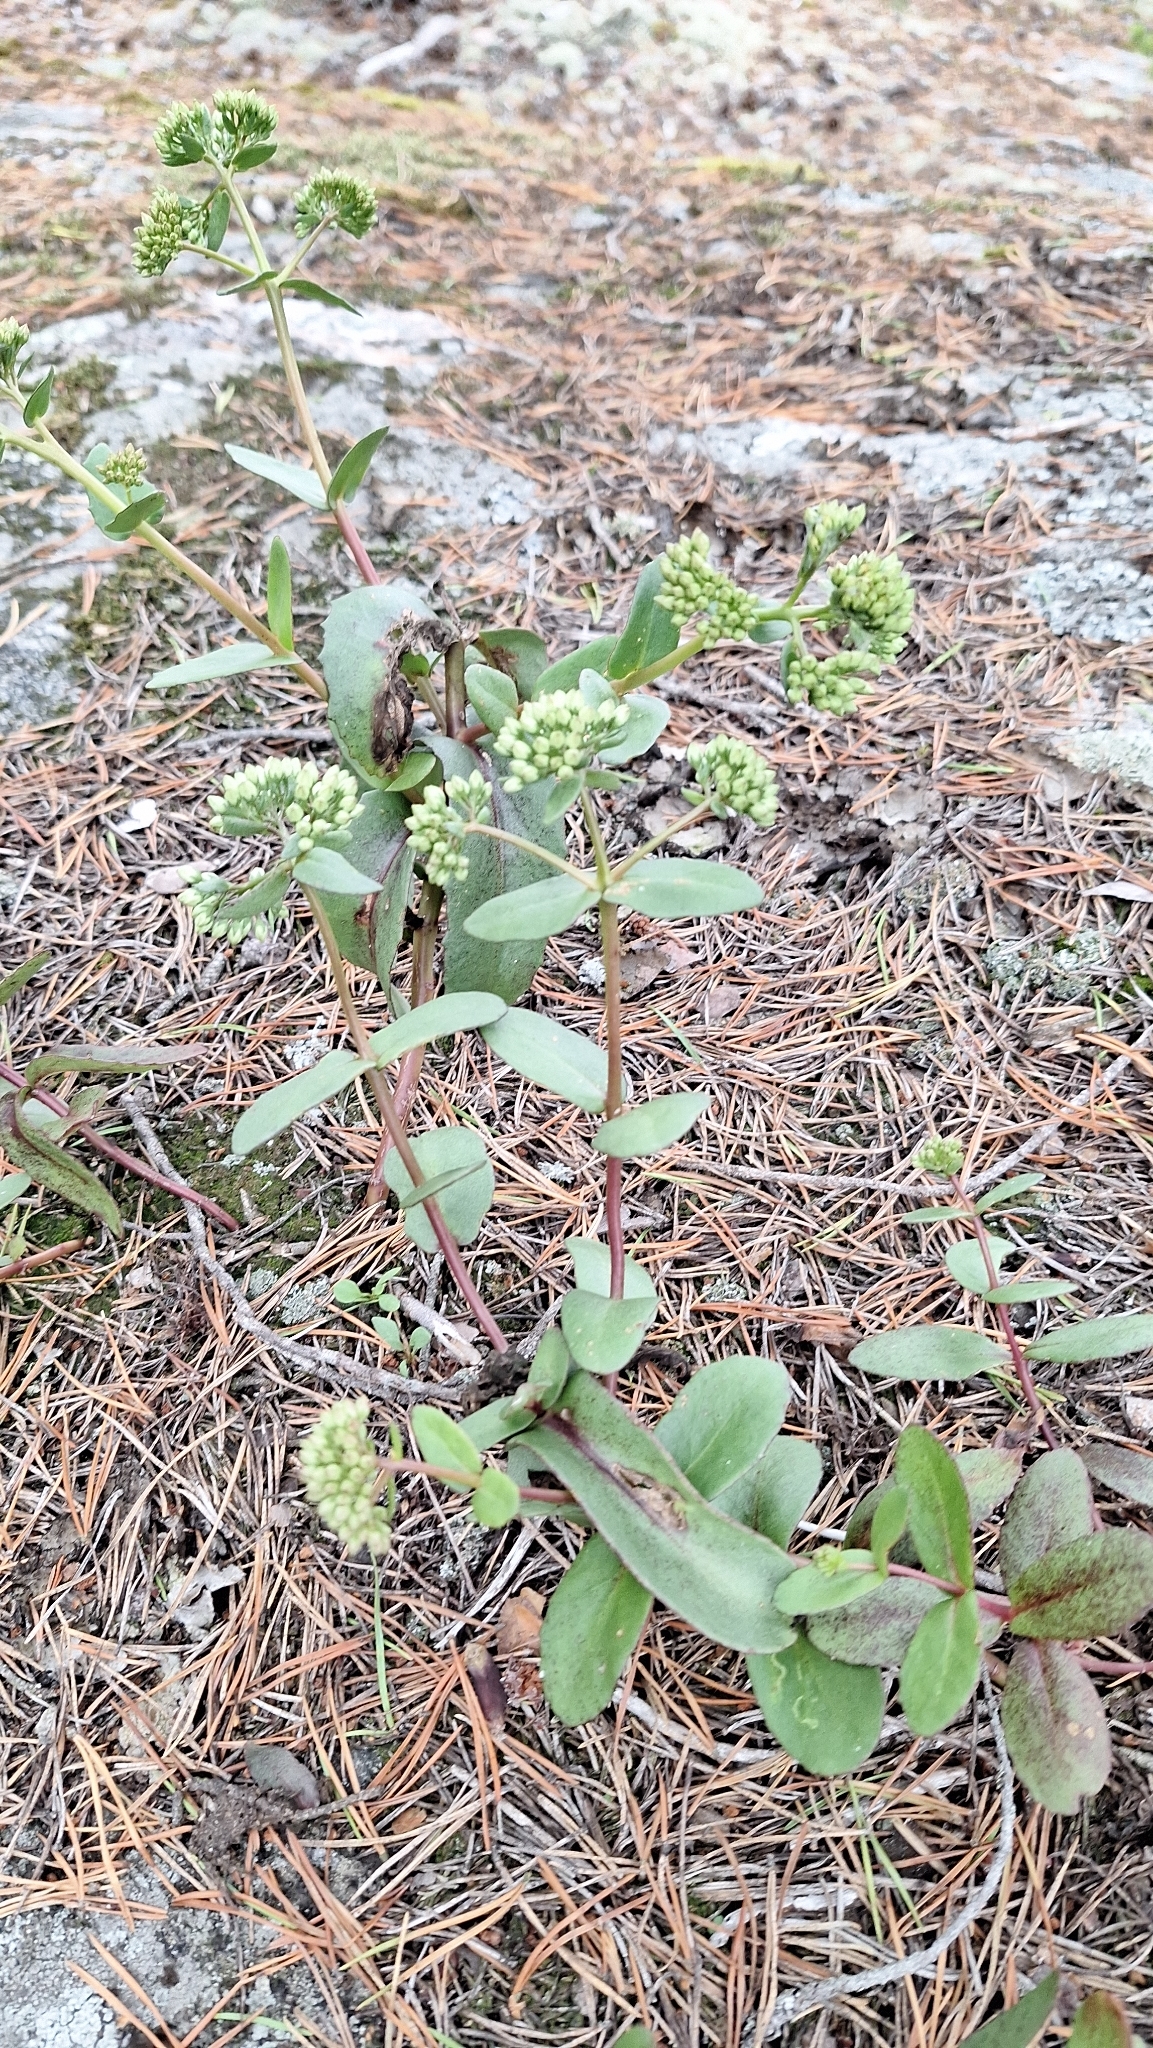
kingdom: Plantae
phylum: Tracheophyta
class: Magnoliopsida
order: Saxifragales
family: Crassulaceae
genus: Hylotelephium
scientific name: Hylotelephium maximum
